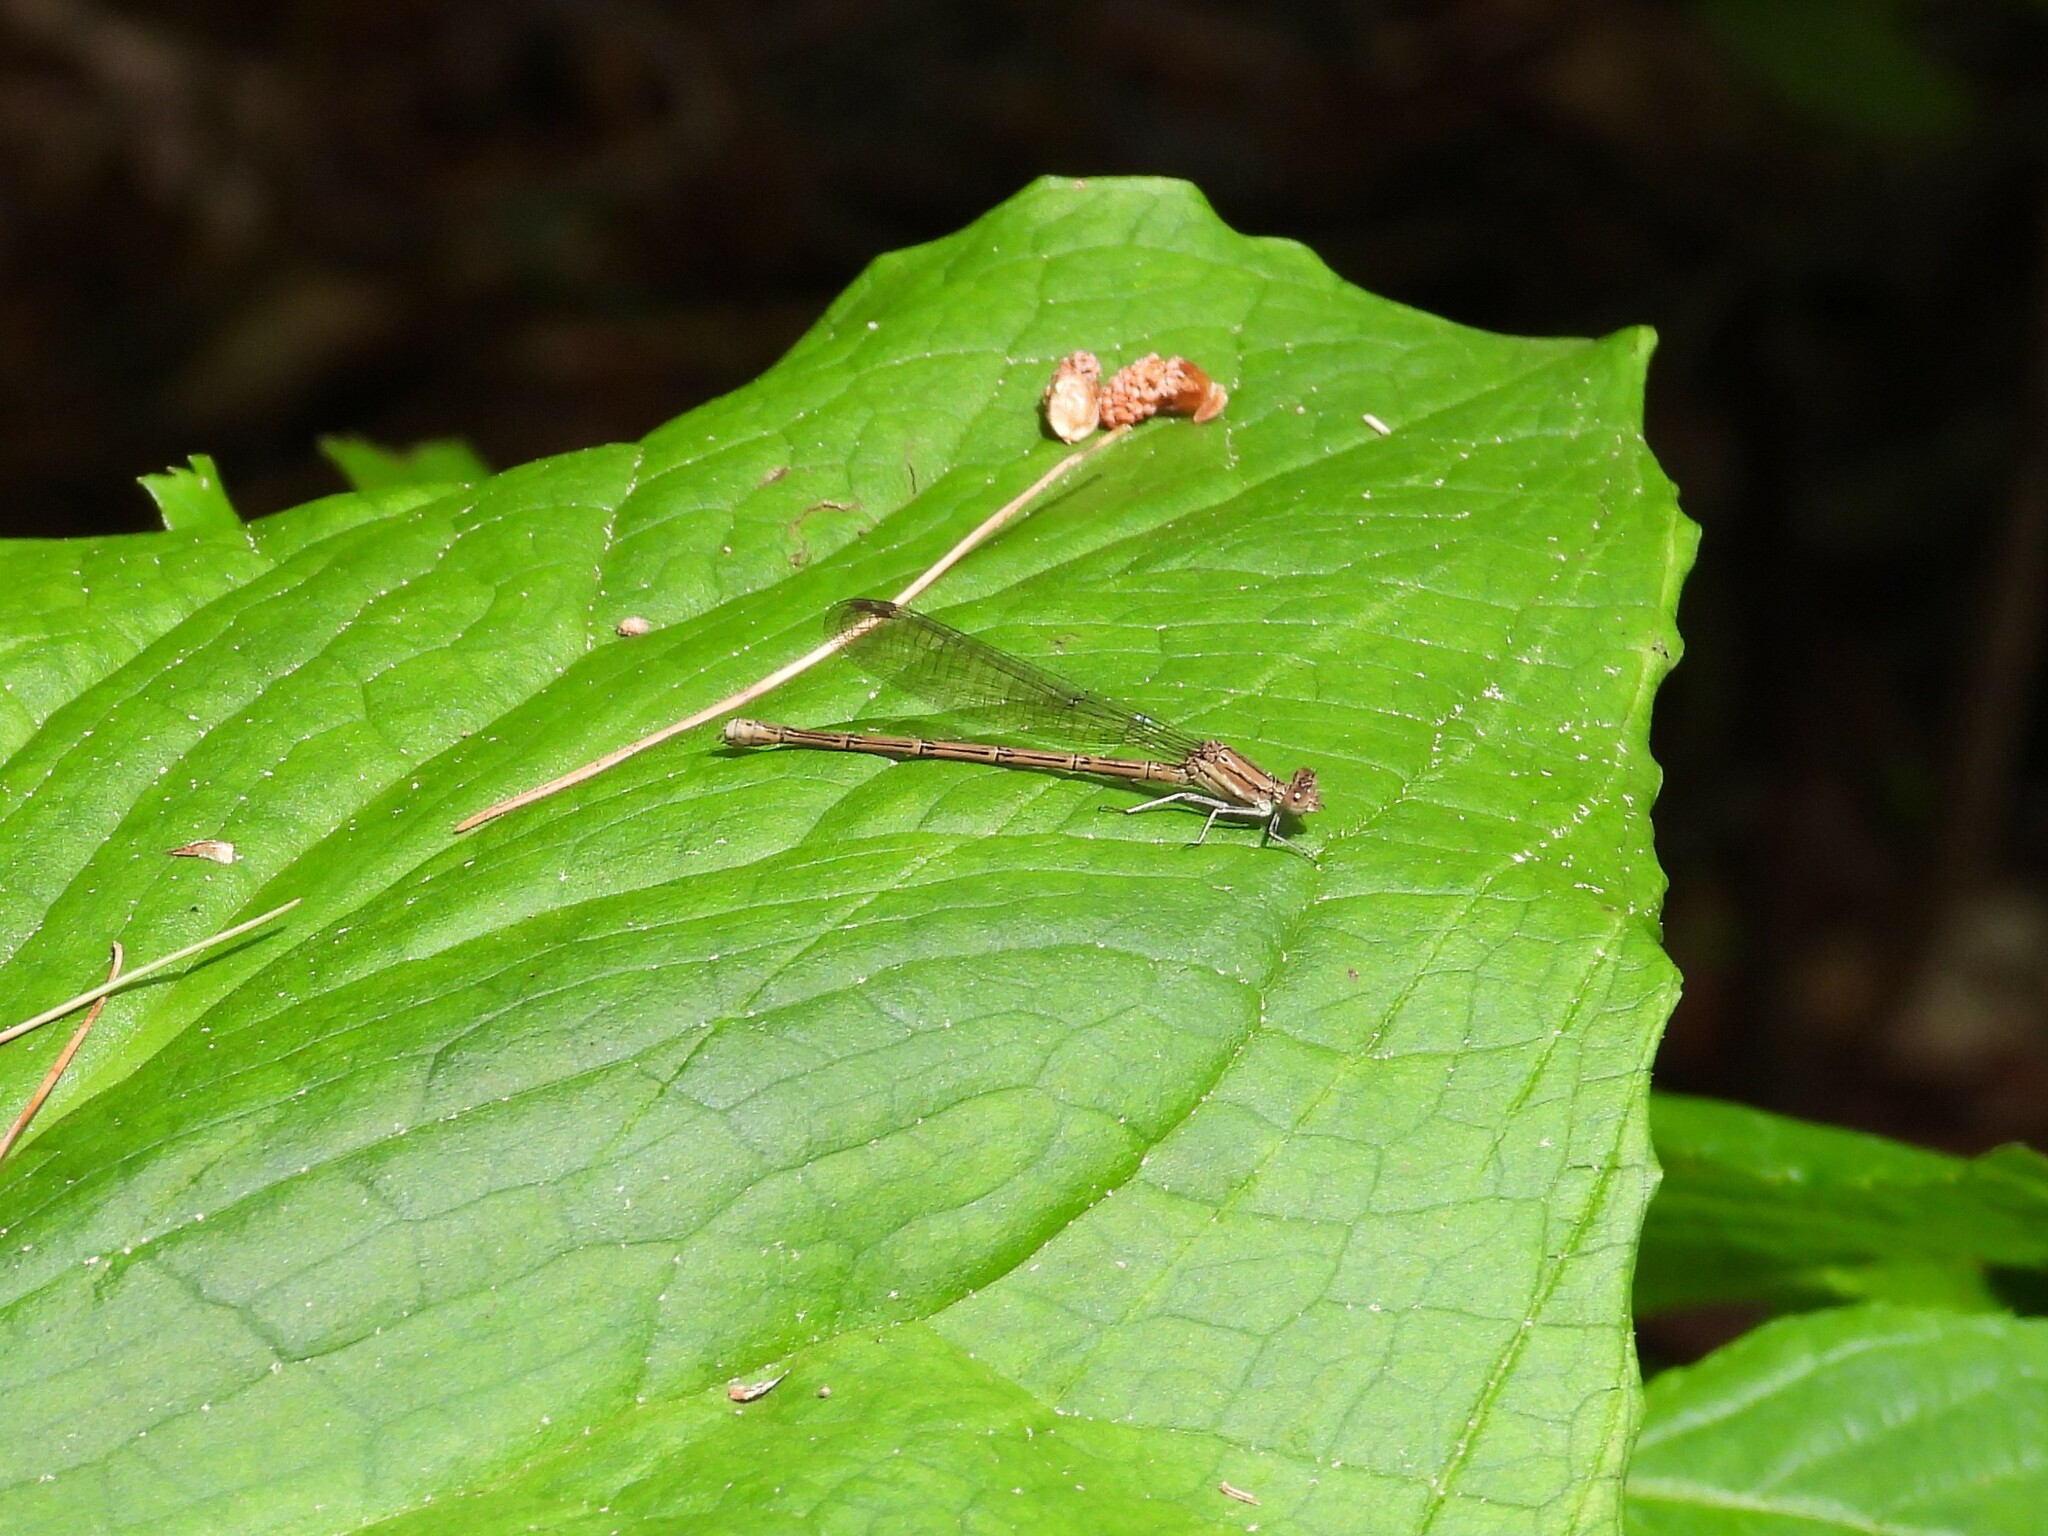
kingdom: Animalia
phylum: Arthropoda
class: Insecta
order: Odonata
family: Coenagrionidae
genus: Argia
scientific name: Argia fumipennis
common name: Variable dancer
